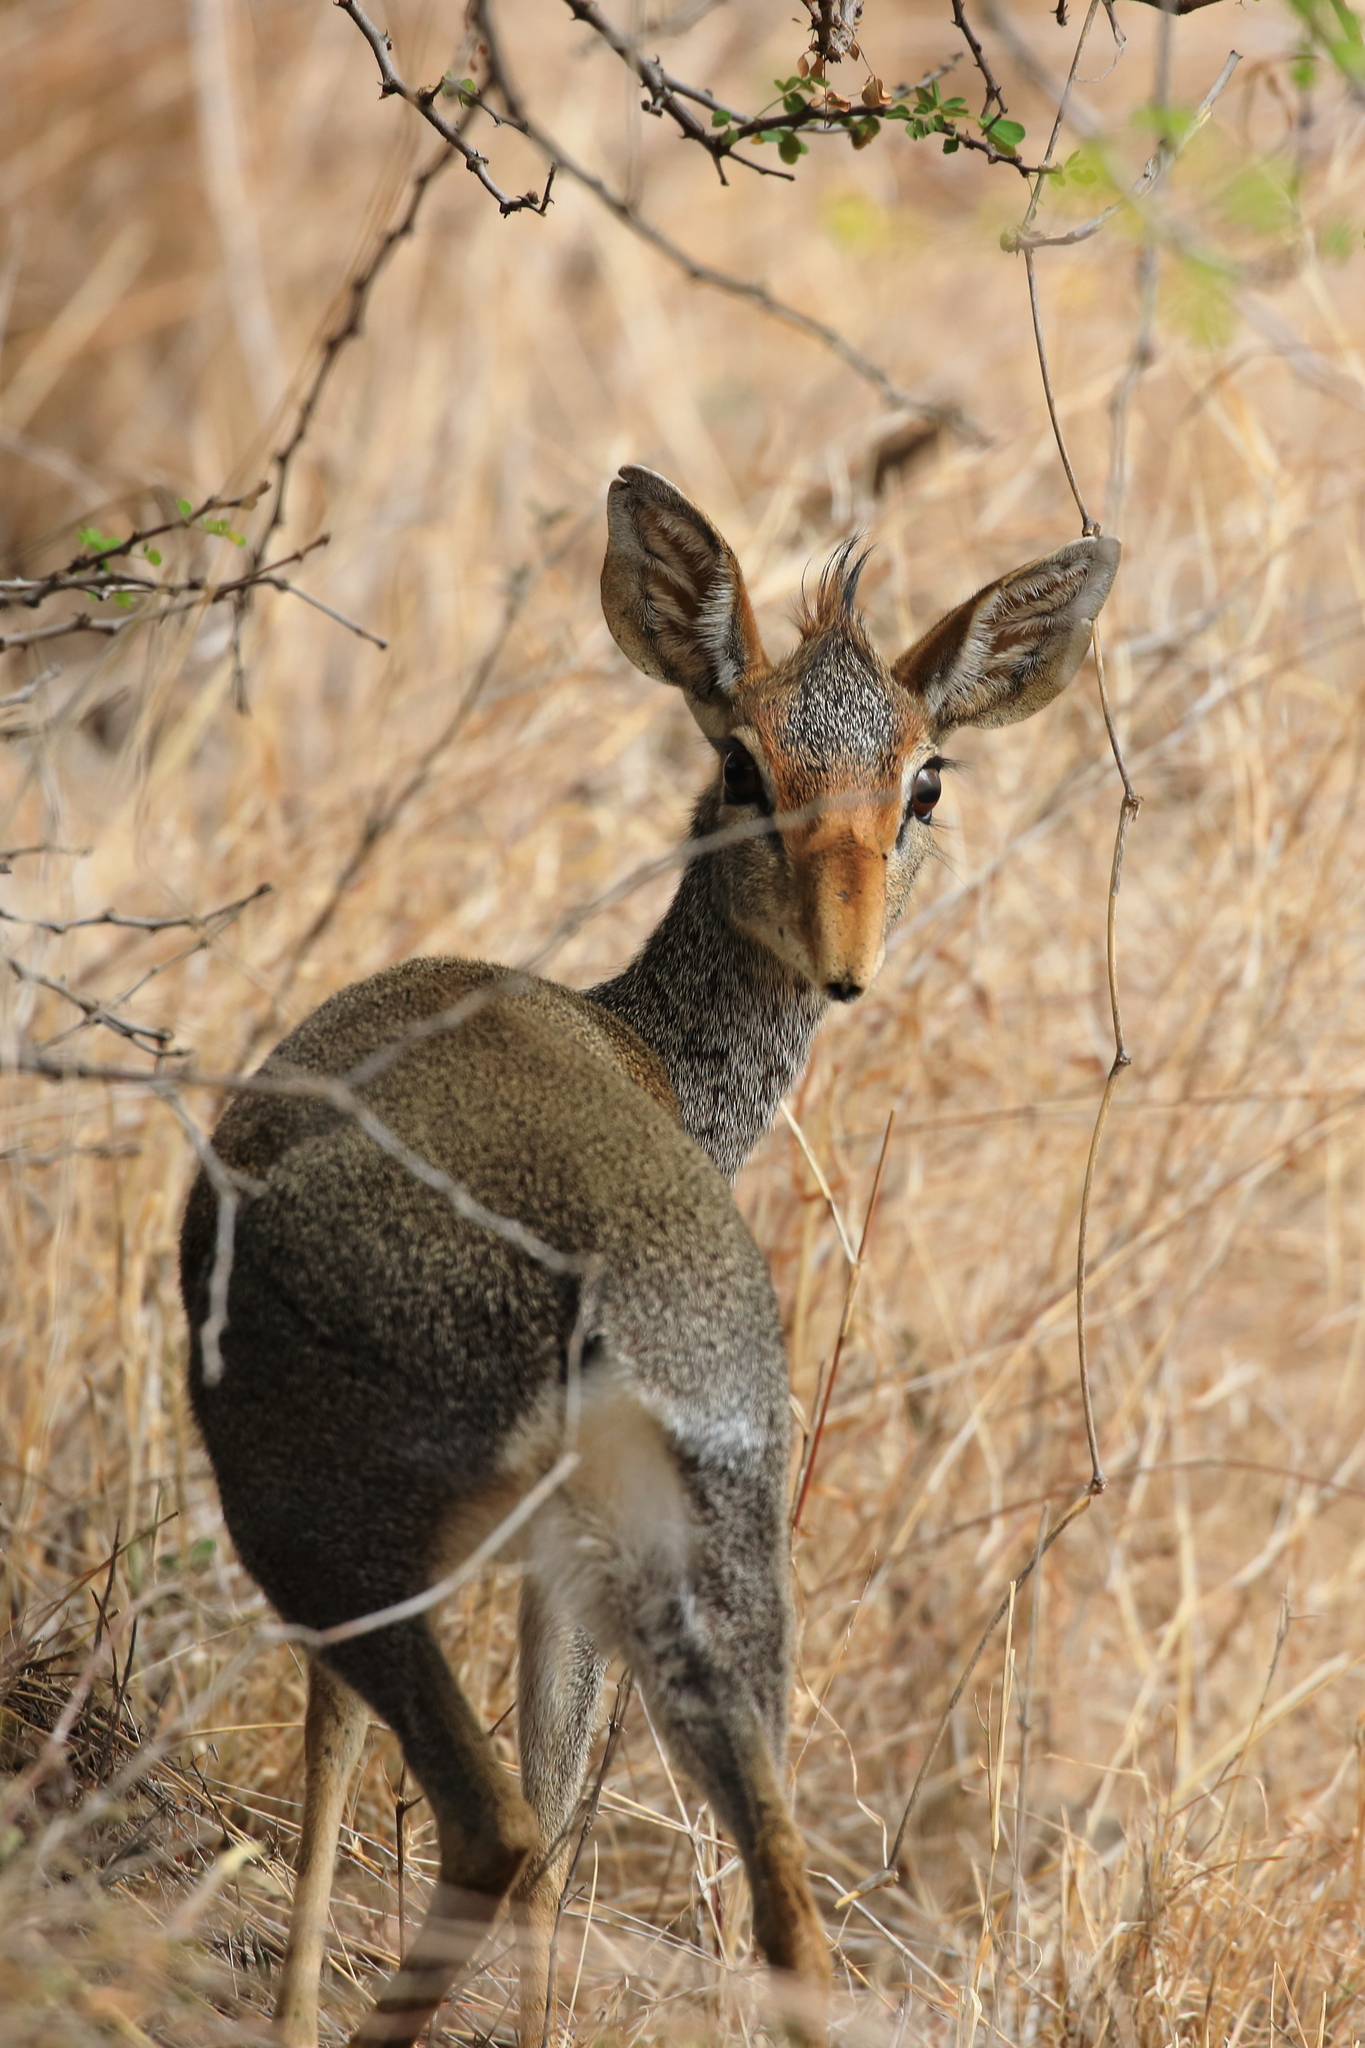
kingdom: Animalia
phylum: Chordata
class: Mammalia
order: Artiodactyla
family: Bovidae
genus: Madoqua
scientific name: Madoqua guentheri
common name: Günther's dikdik
